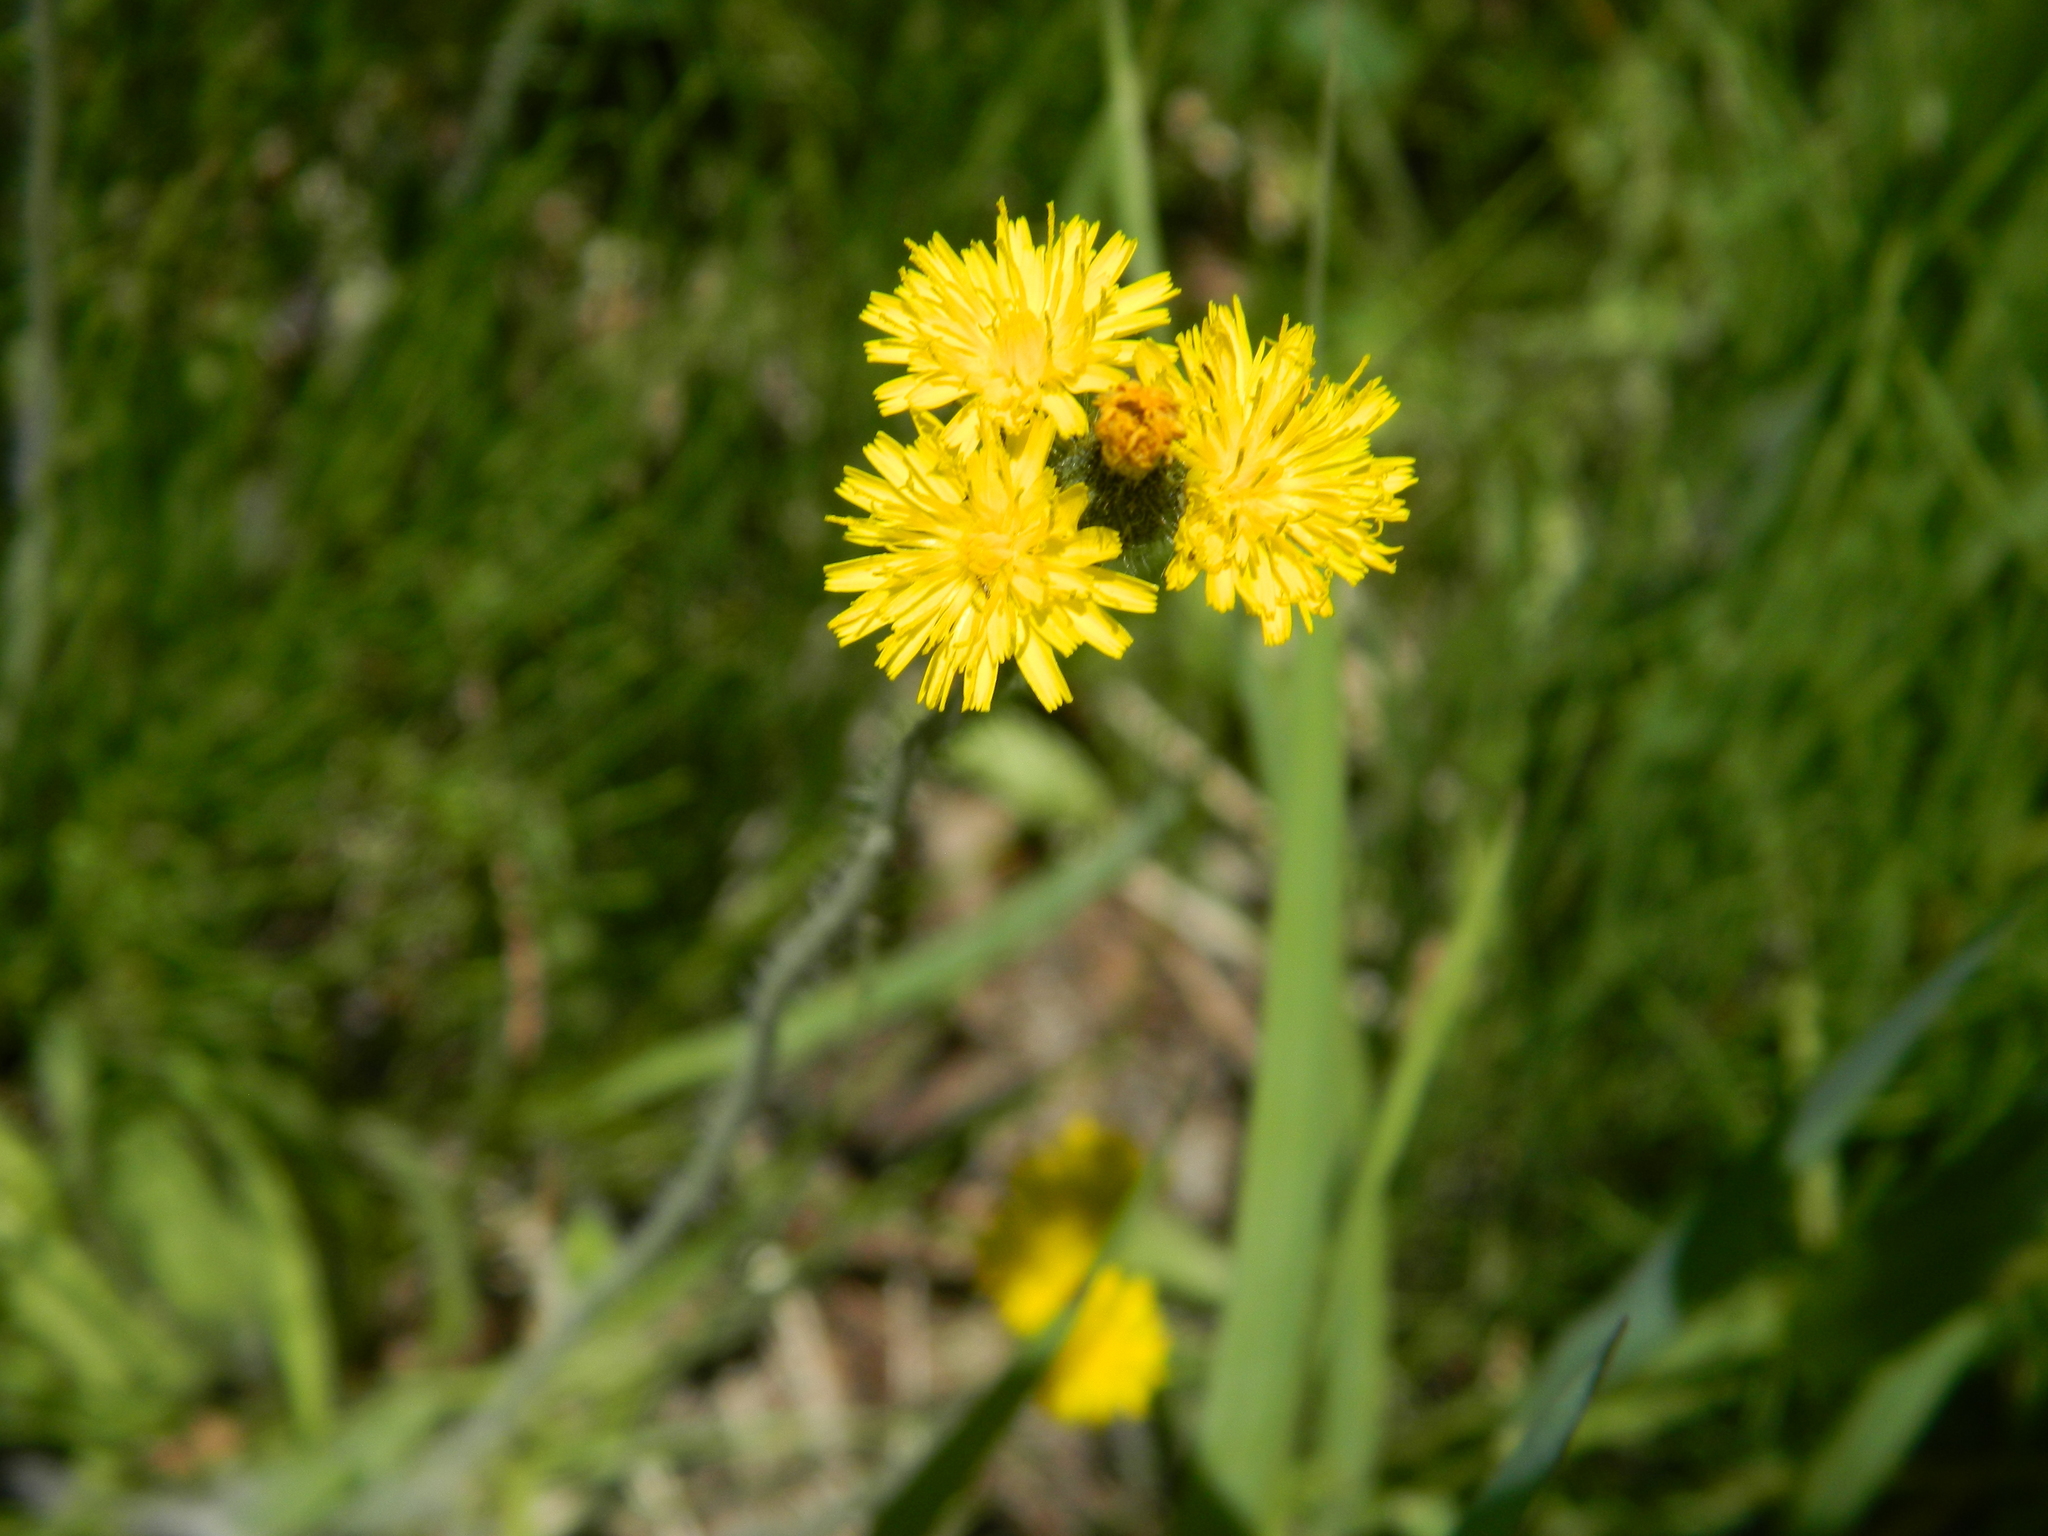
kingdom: Plantae
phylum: Tracheophyta
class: Magnoliopsida
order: Asterales
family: Asteraceae
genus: Pilosella
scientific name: Pilosella caespitosa
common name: Yellow fox-and-cubs
